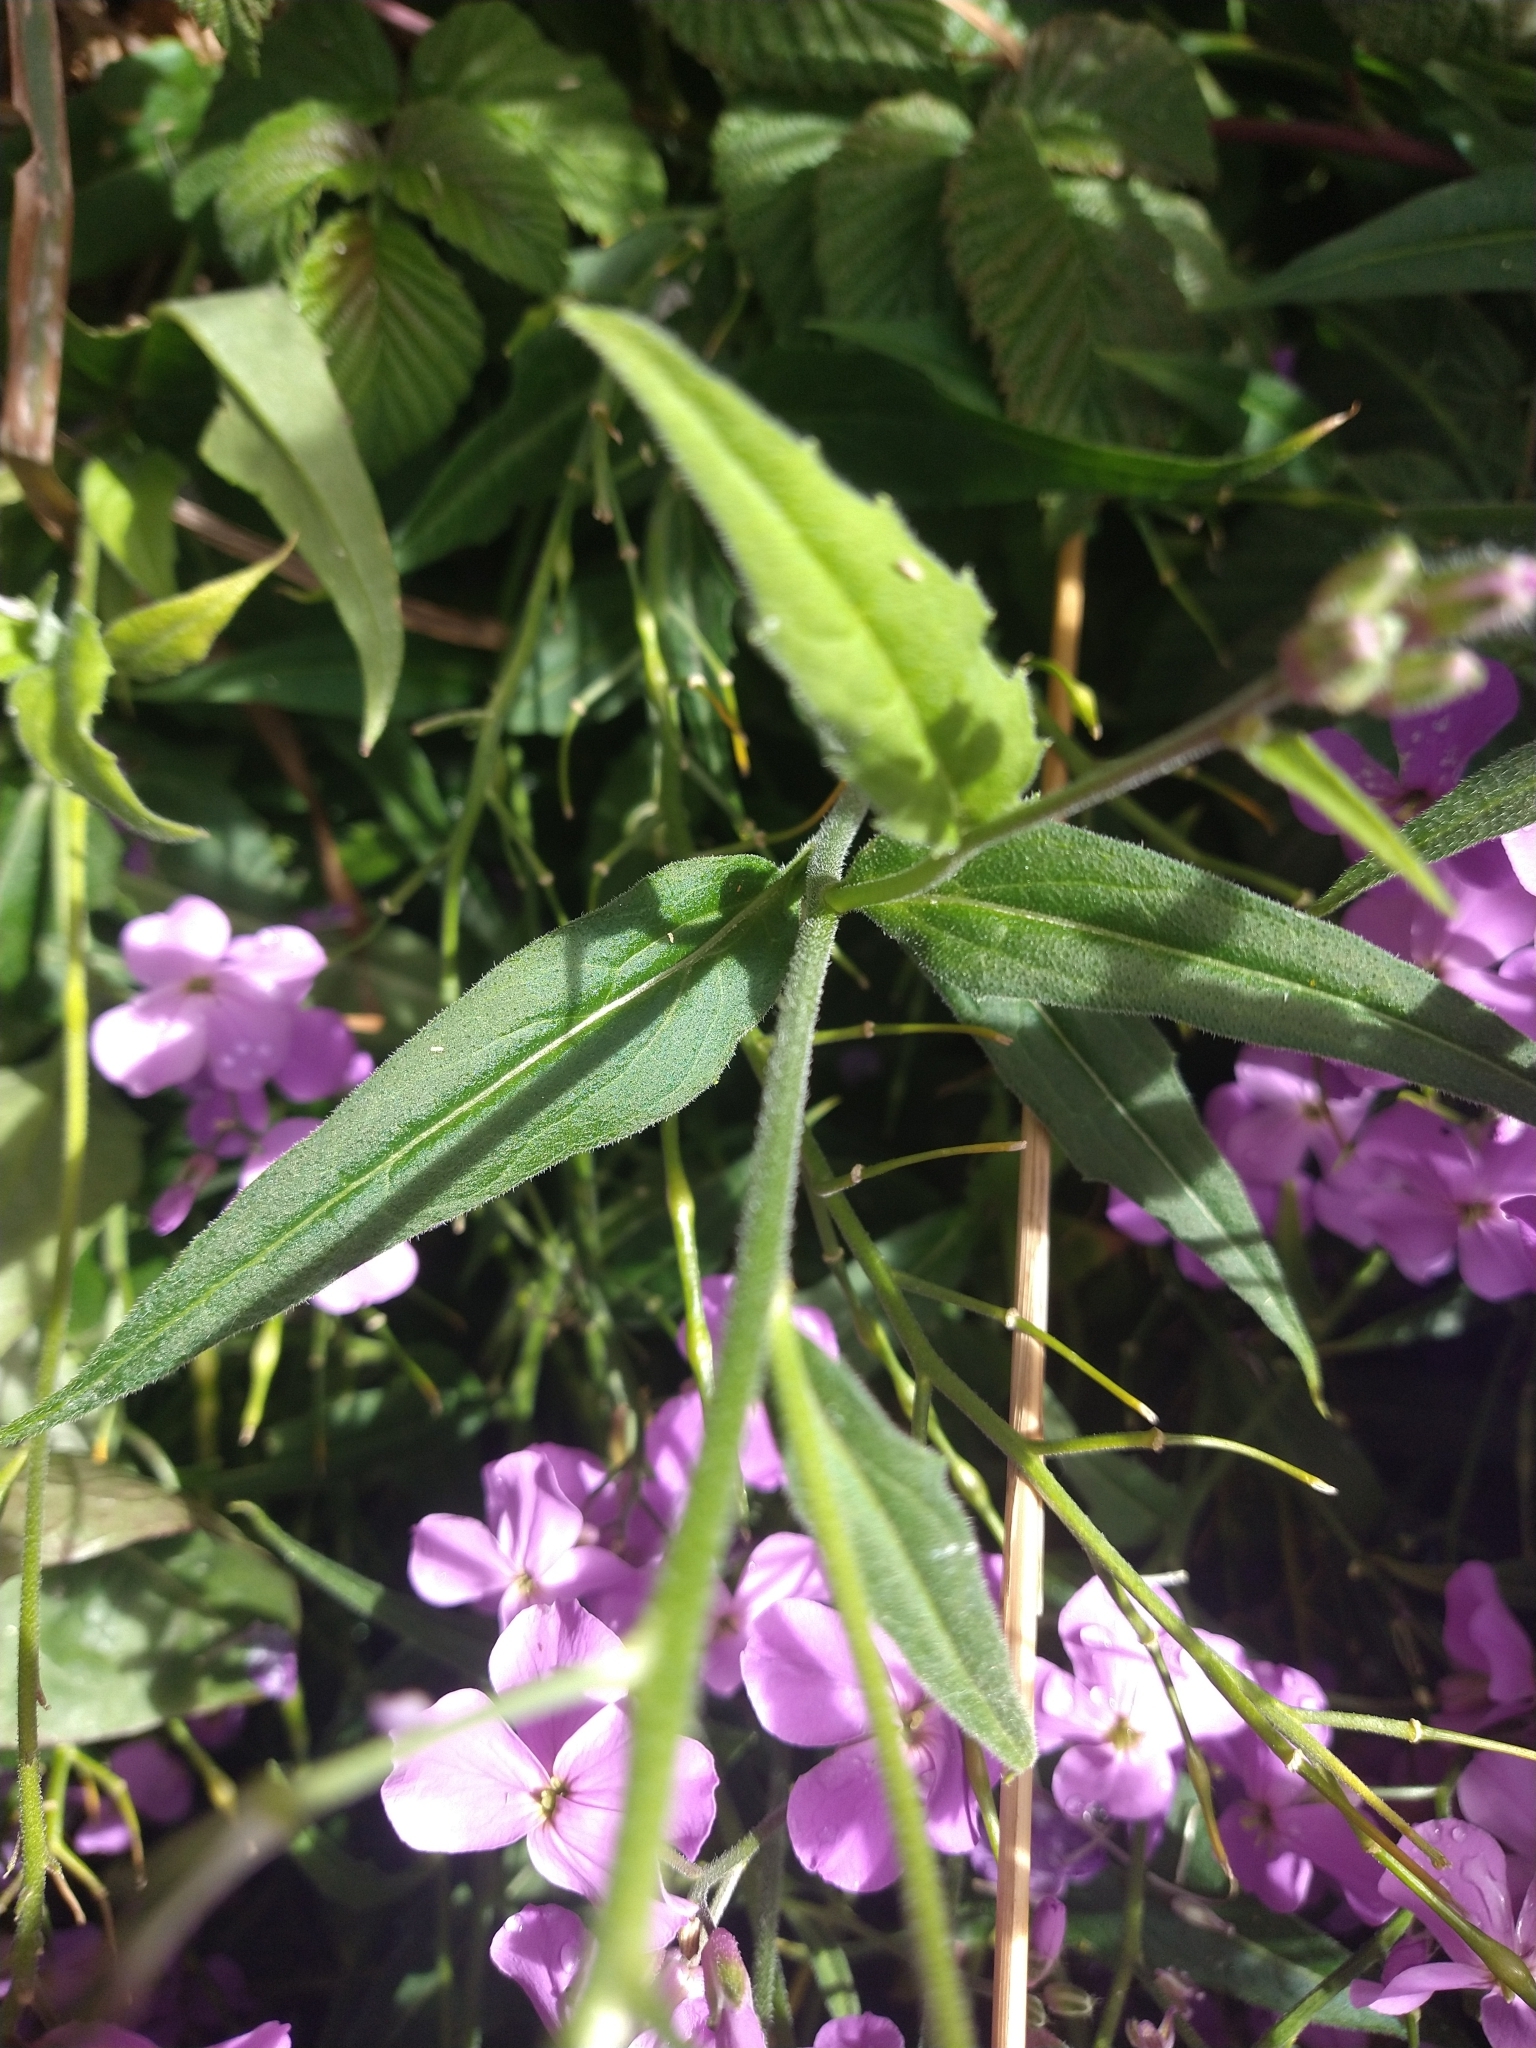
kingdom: Plantae
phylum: Tracheophyta
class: Magnoliopsida
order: Brassicales
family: Brassicaceae
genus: Hesperis
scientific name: Hesperis matronalis
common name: Dame's-violet
